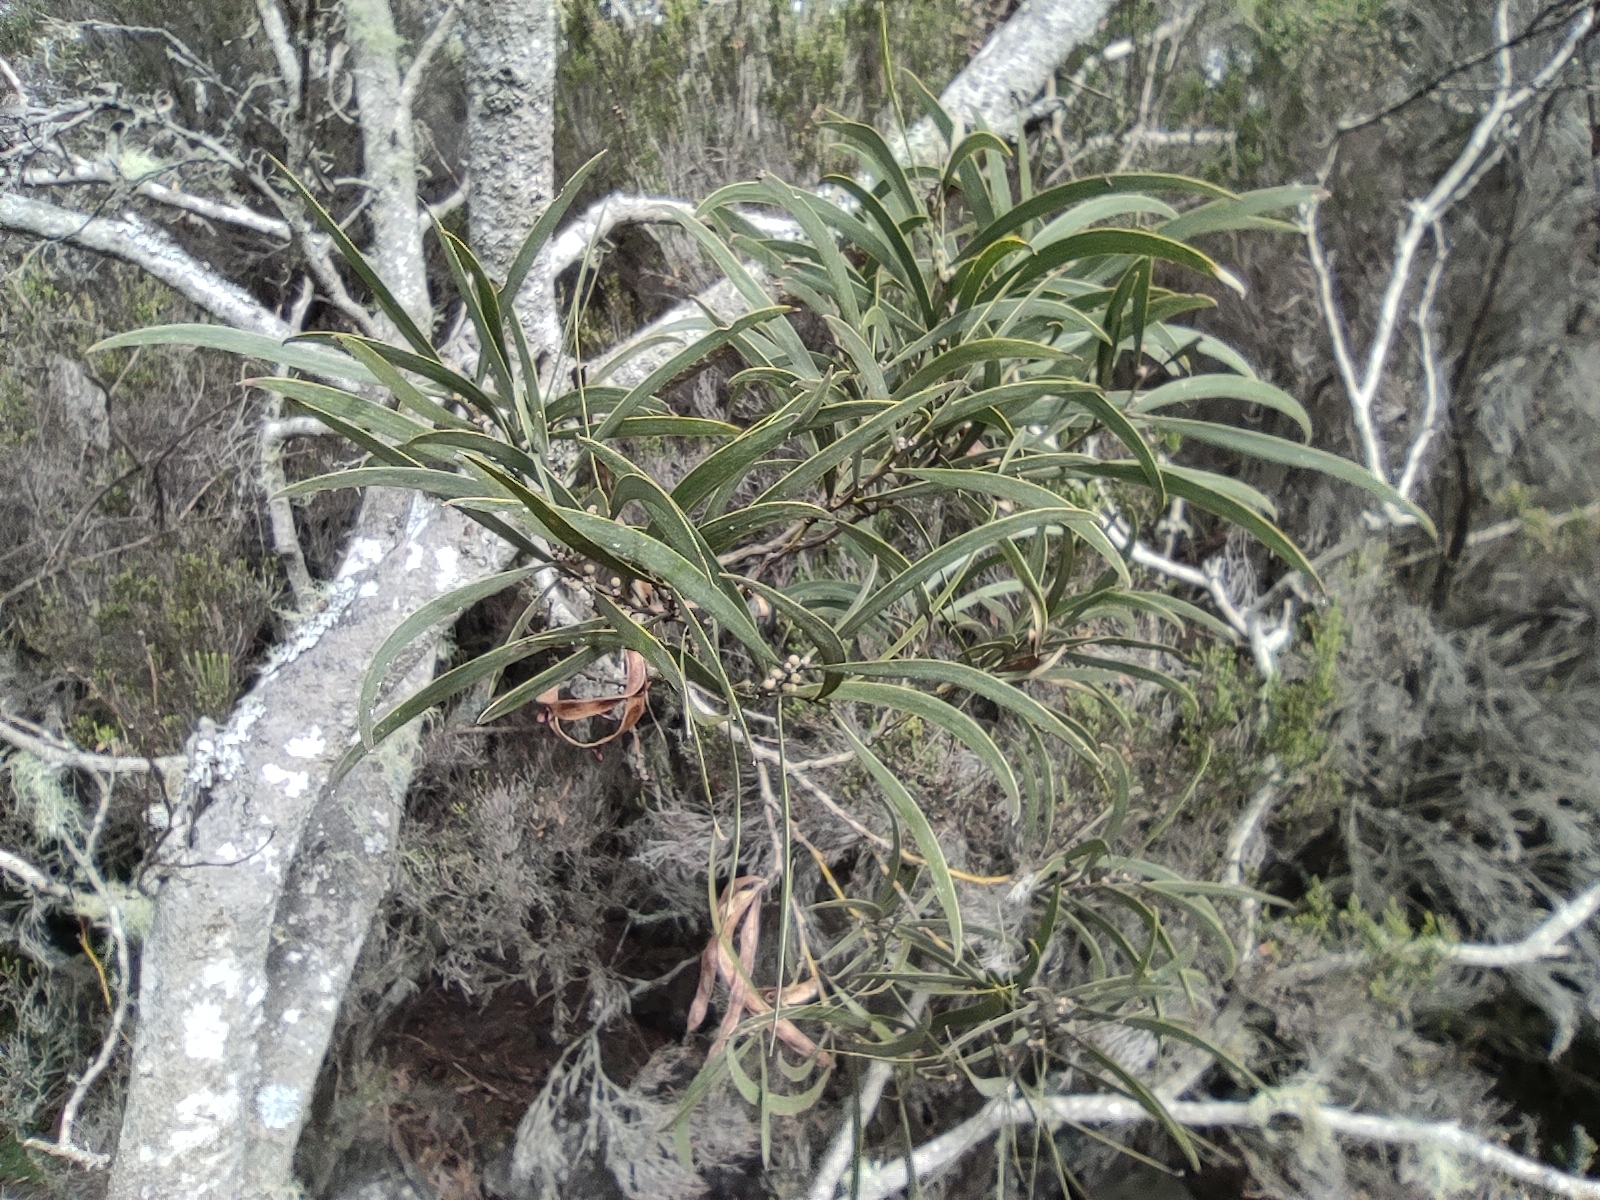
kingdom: Plantae
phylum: Tracheophyta
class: Magnoliopsida
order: Fabales
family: Fabaceae
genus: Acacia
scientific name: Acacia heterophylla
